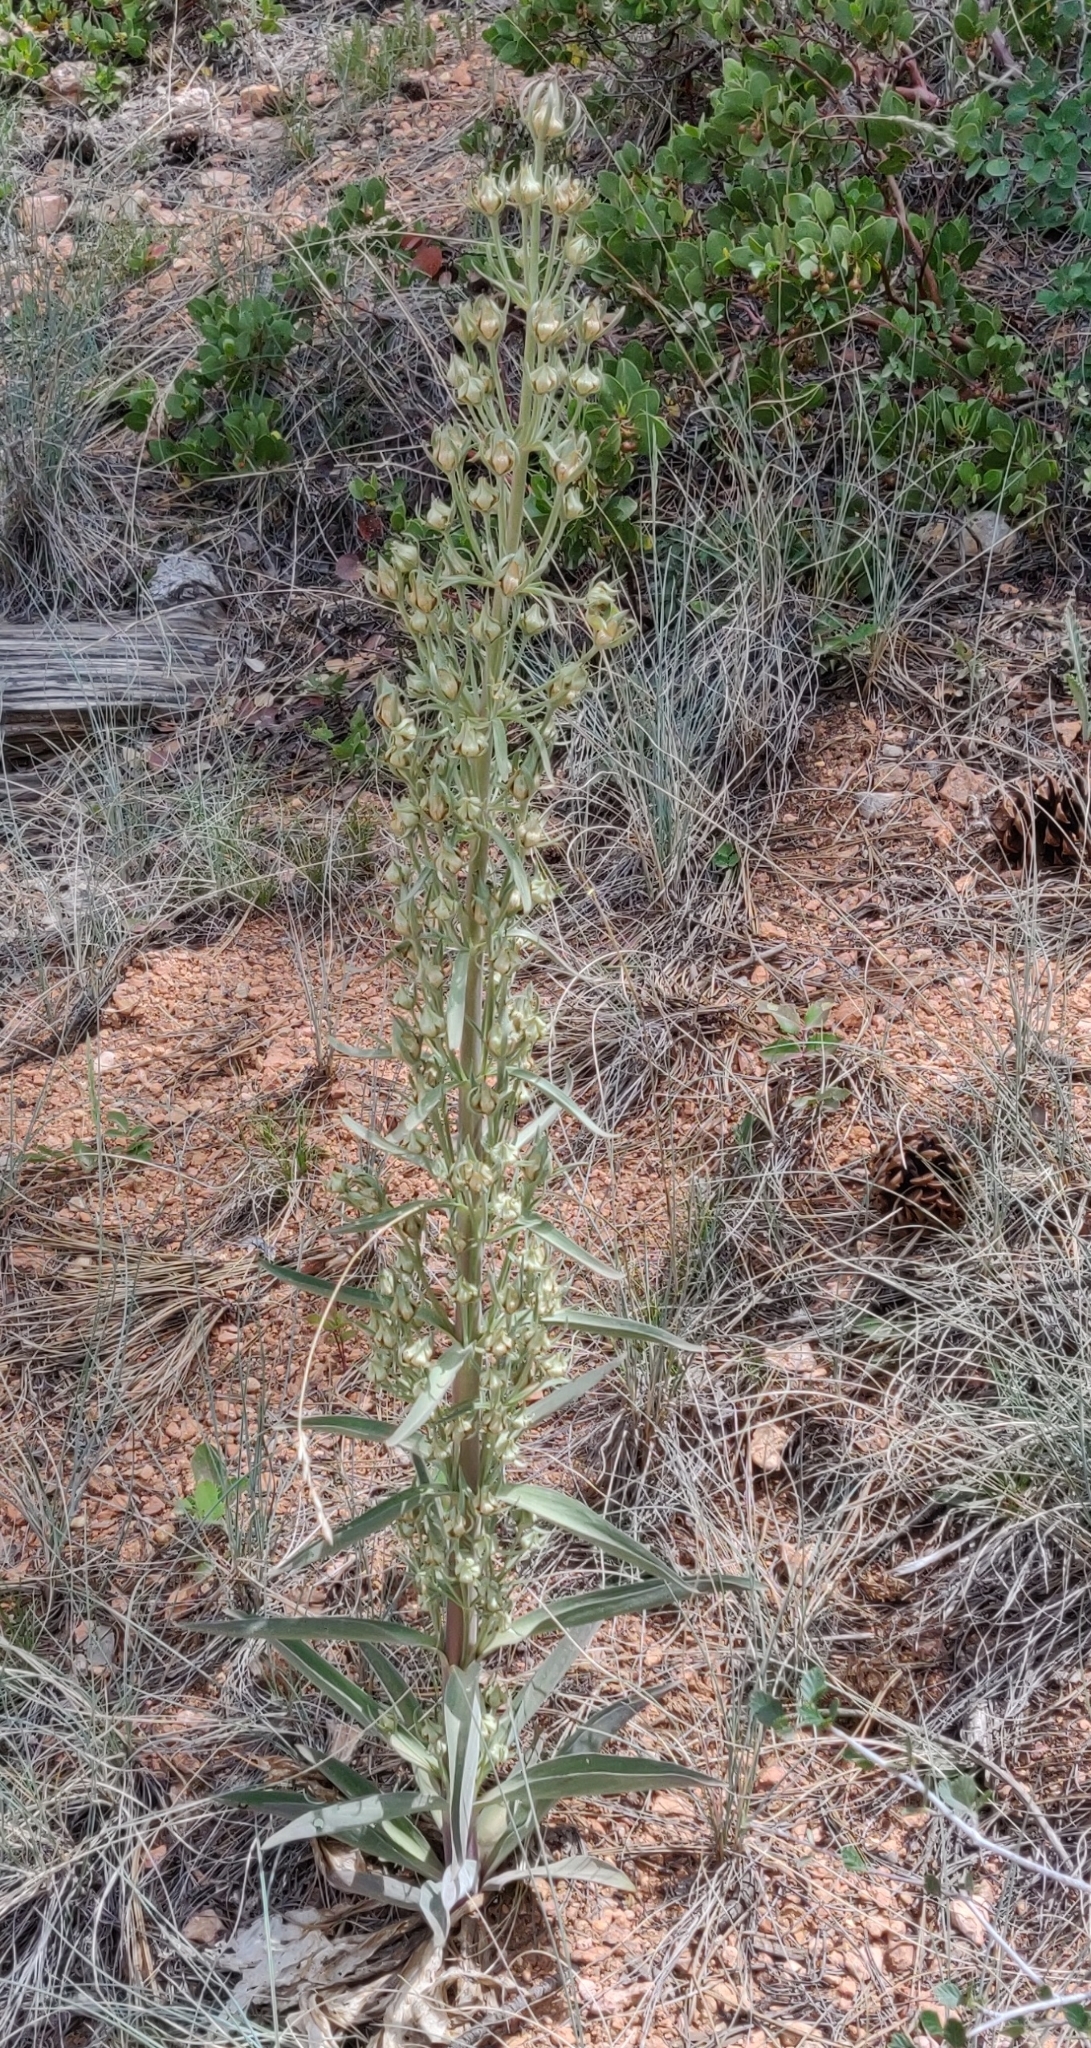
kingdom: Plantae
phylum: Tracheophyta
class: Magnoliopsida
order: Gentianales
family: Gentianaceae
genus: Frasera
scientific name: Frasera speciosa
